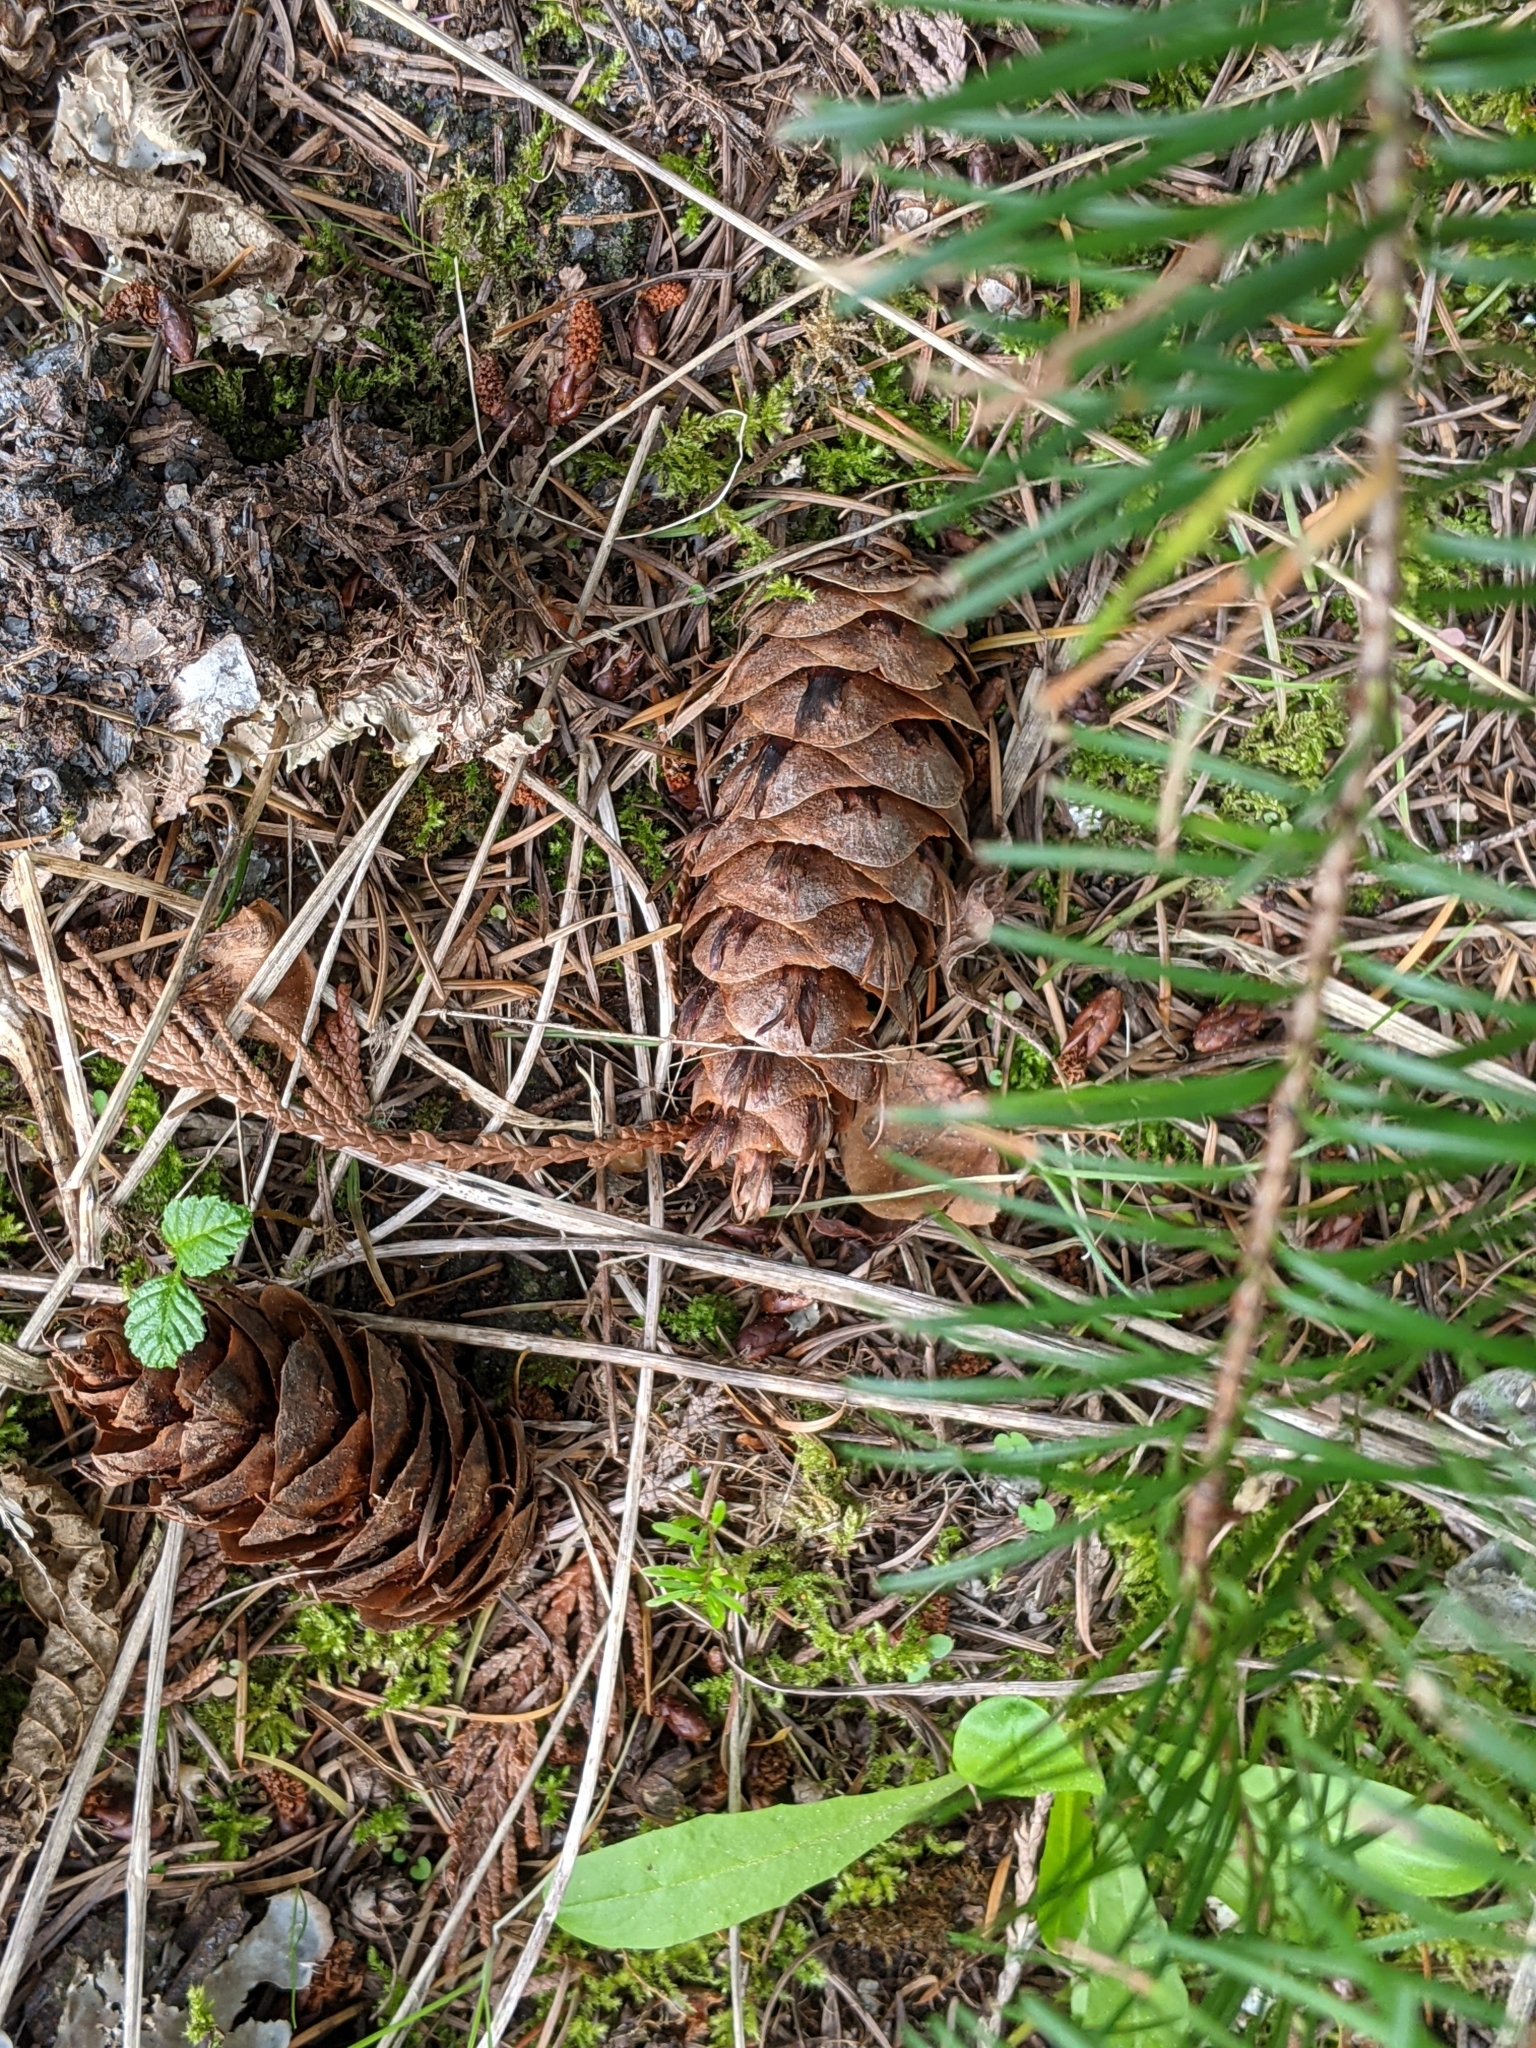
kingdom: Plantae
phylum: Tracheophyta
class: Pinopsida
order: Pinales
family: Pinaceae
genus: Pseudotsuga
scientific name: Pseudotsuga menziesii
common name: Douglas fir
